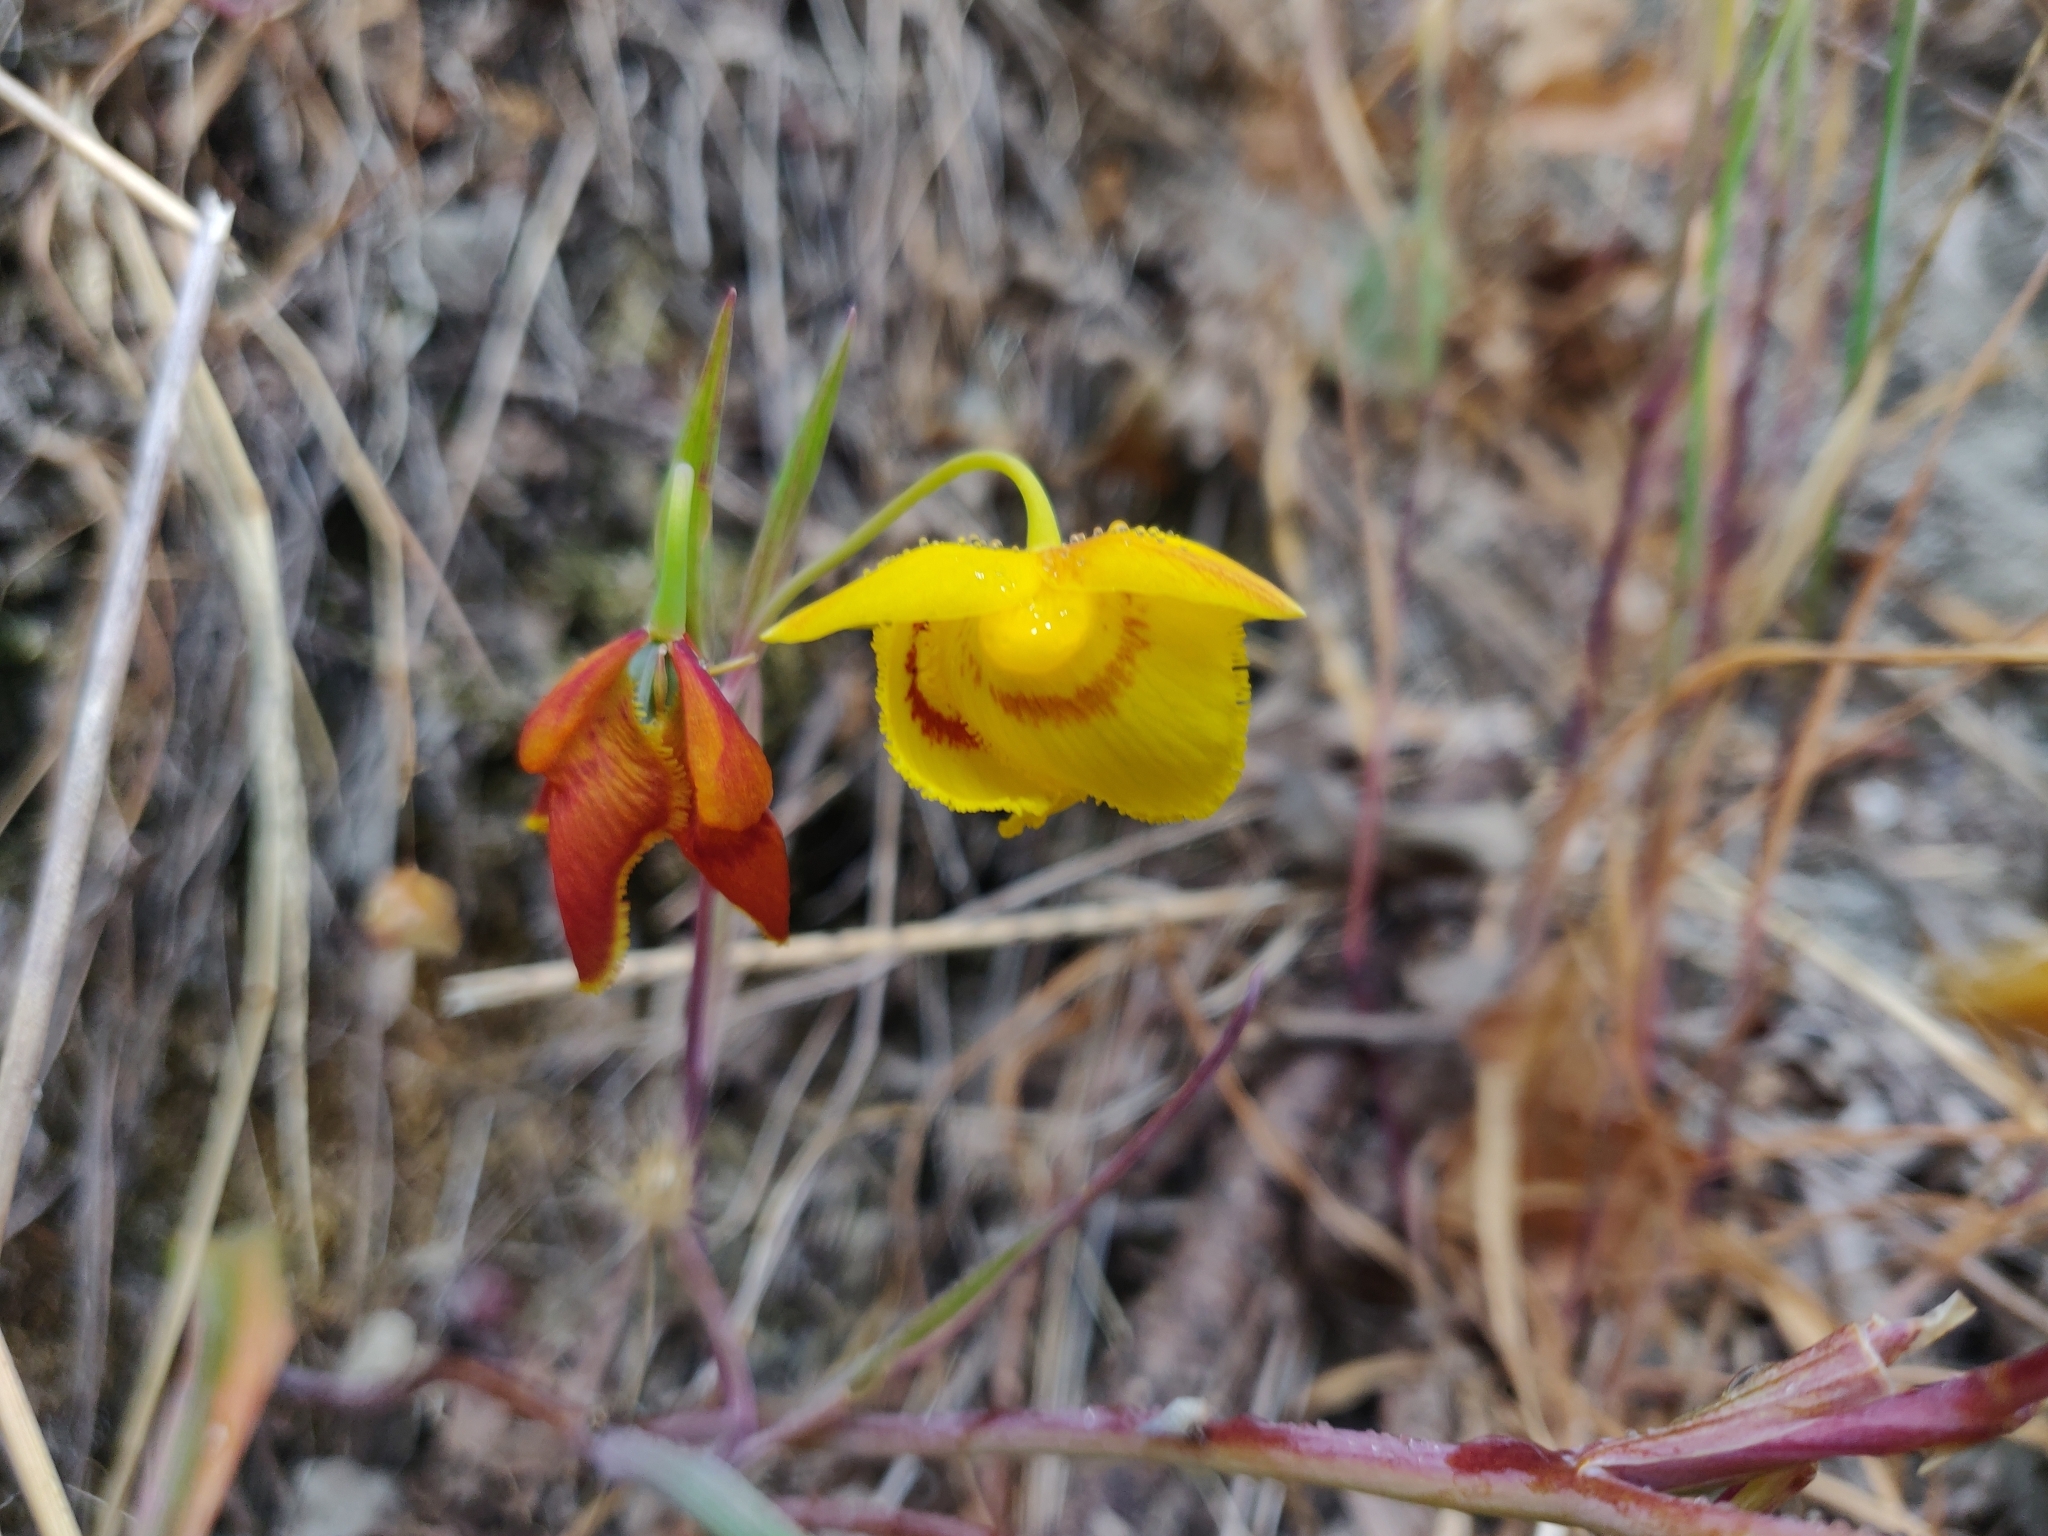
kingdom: Plantae
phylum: Tracheophyta
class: Liliopsida
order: Liliales
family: Liliaceae
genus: Calochortus
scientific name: Calochortus amabilis
